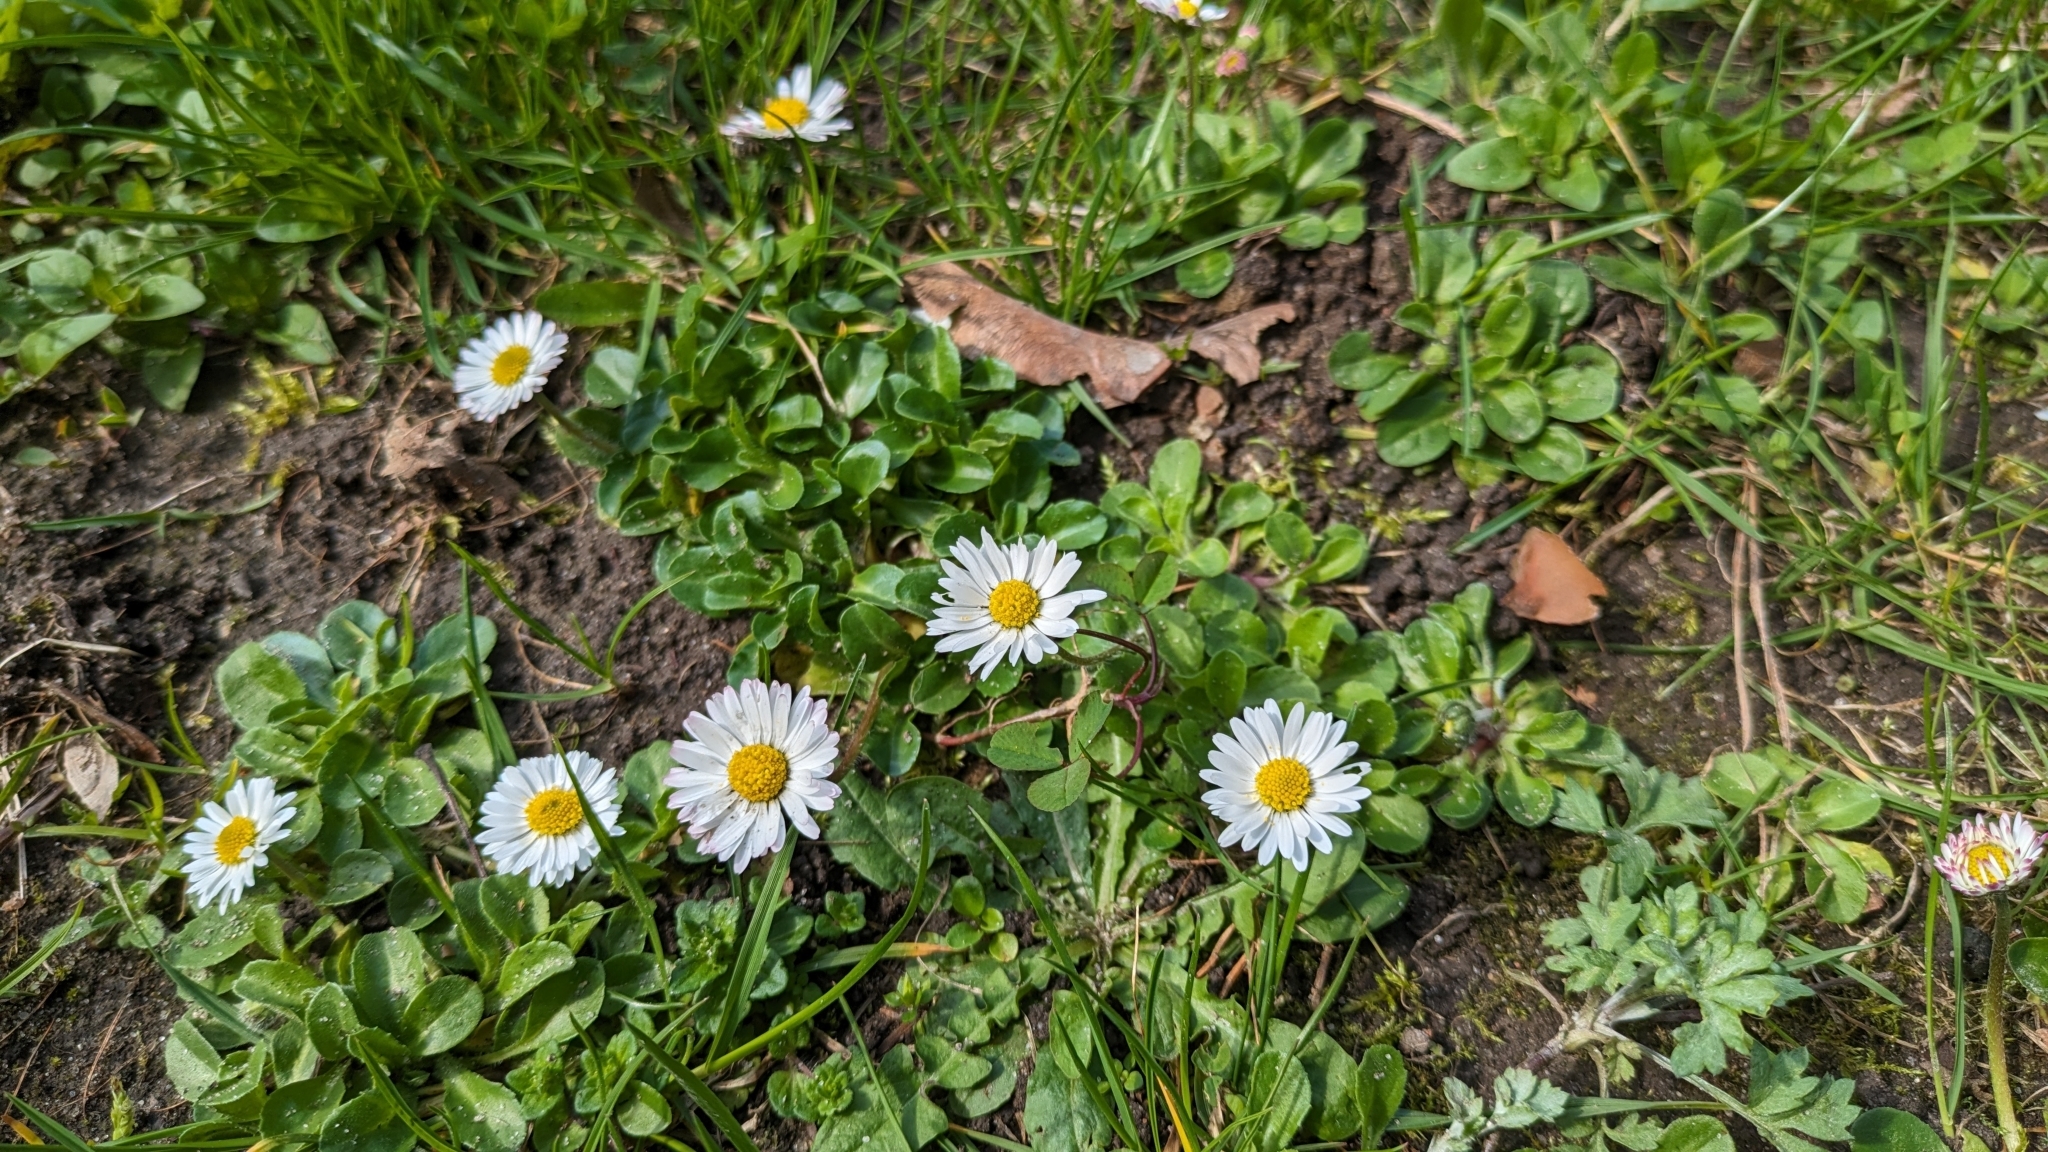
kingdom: Plantae
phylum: Tracheophyta
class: Magnoliopsida
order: Asterales
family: Asteraceae
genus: Bellis
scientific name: Bellis perennis
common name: Lawndaisy
